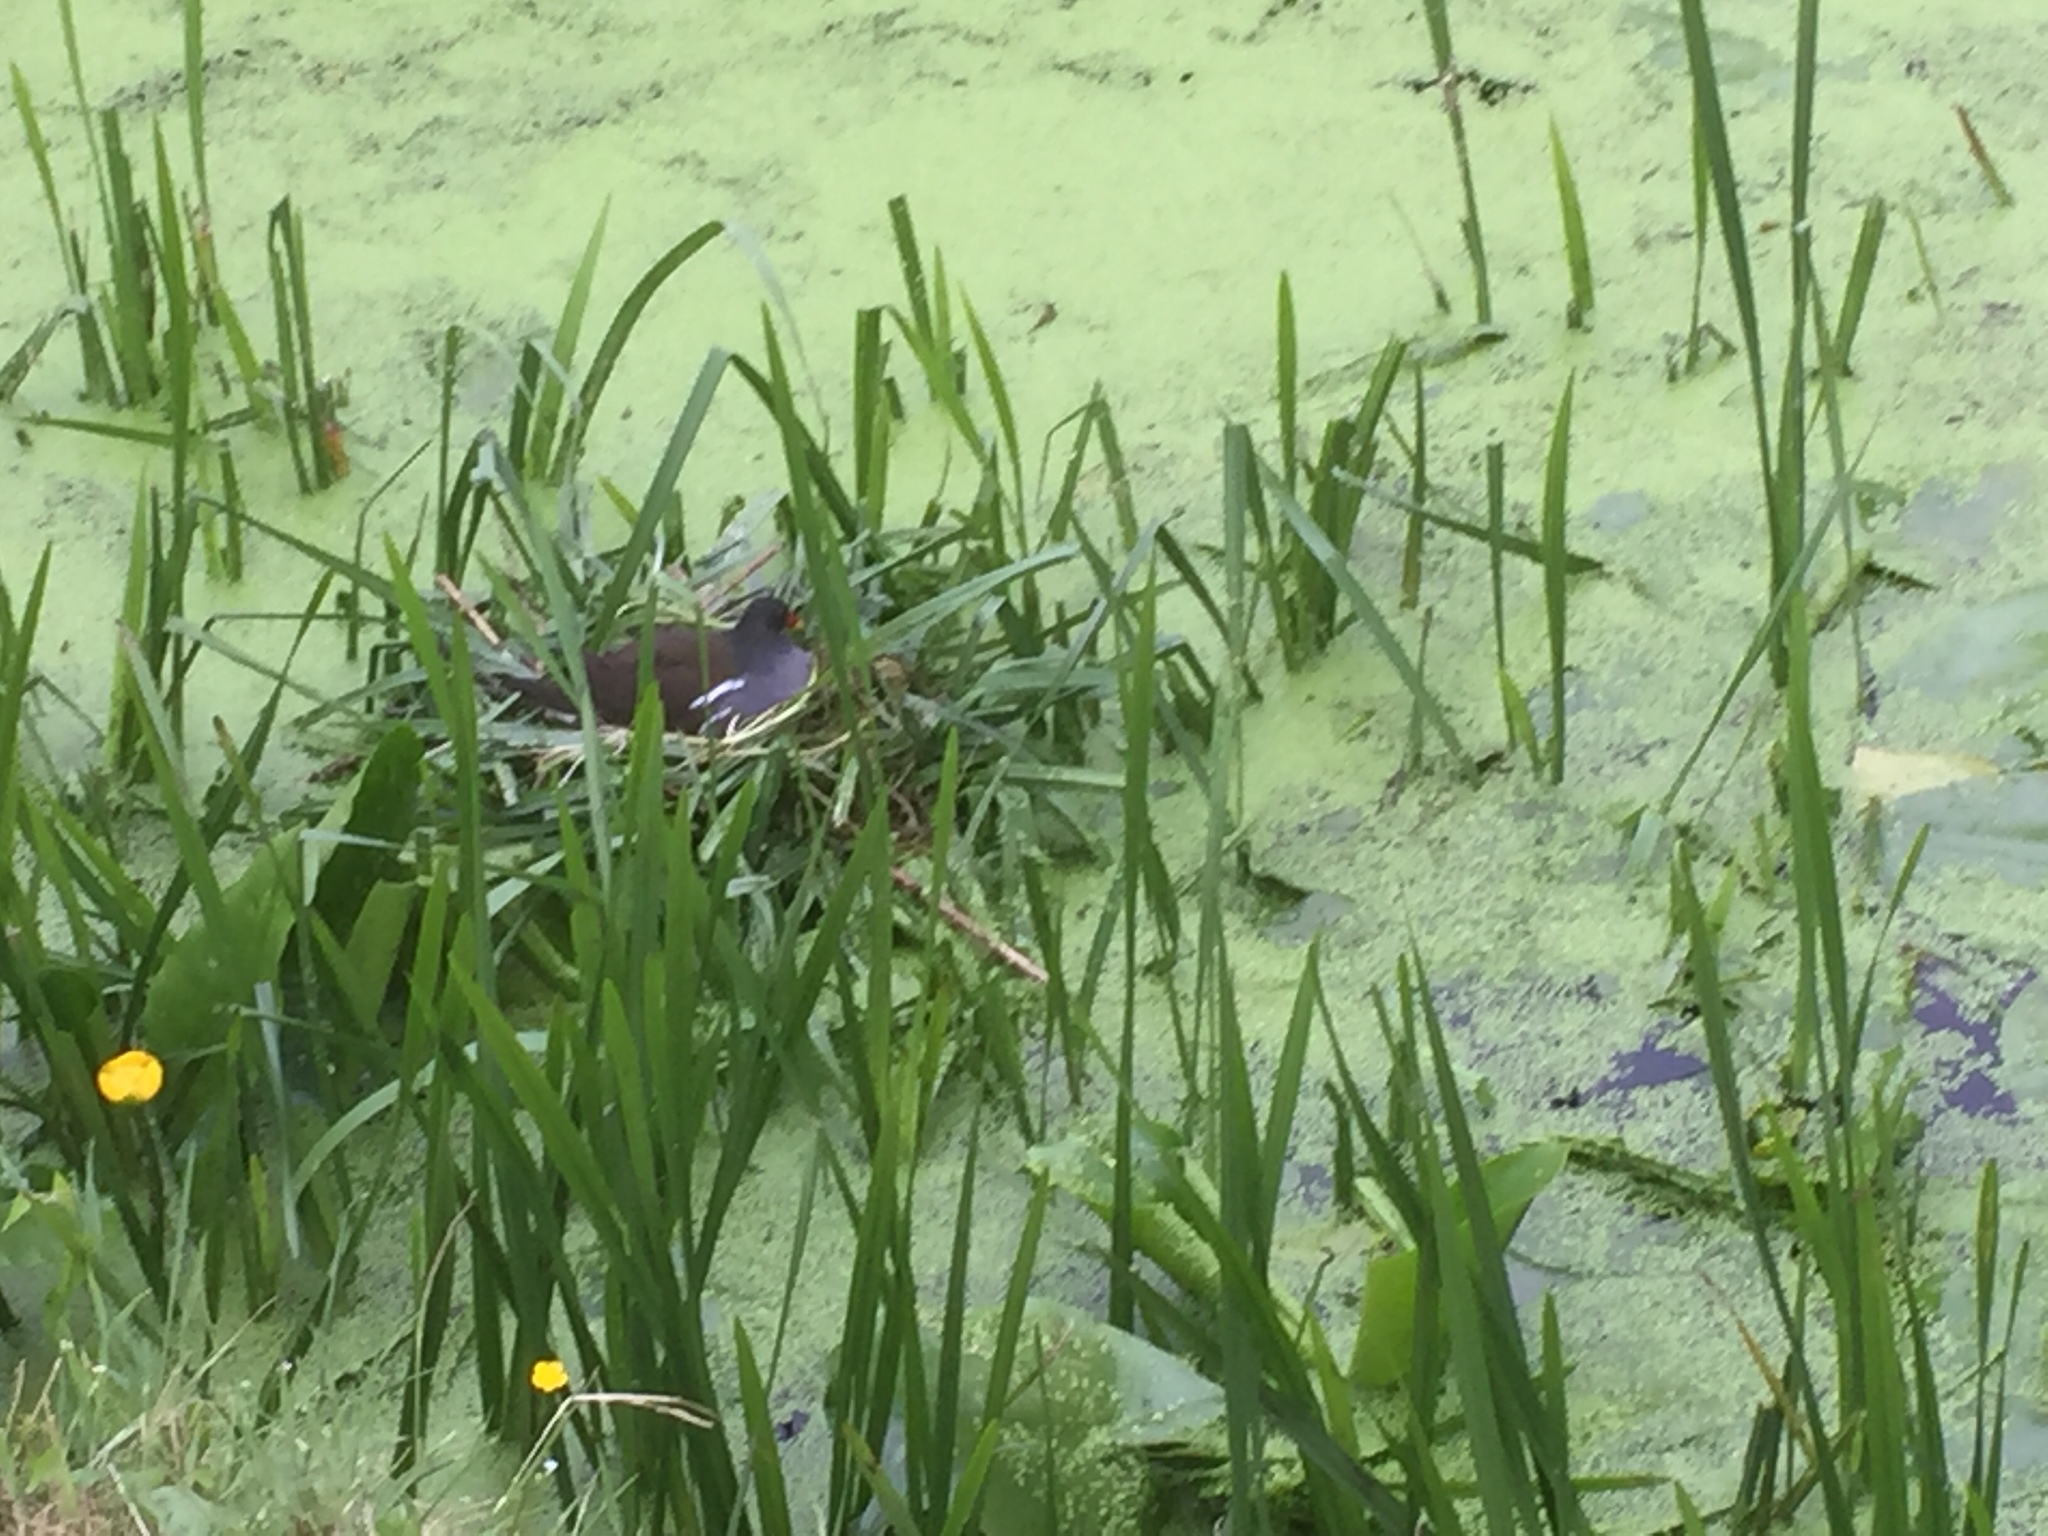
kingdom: Animalia
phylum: Chordata
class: Aves
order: Gruiformes
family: Rallidae
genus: Gallinula
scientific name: Gallinula chloropus
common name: Common moorhen
